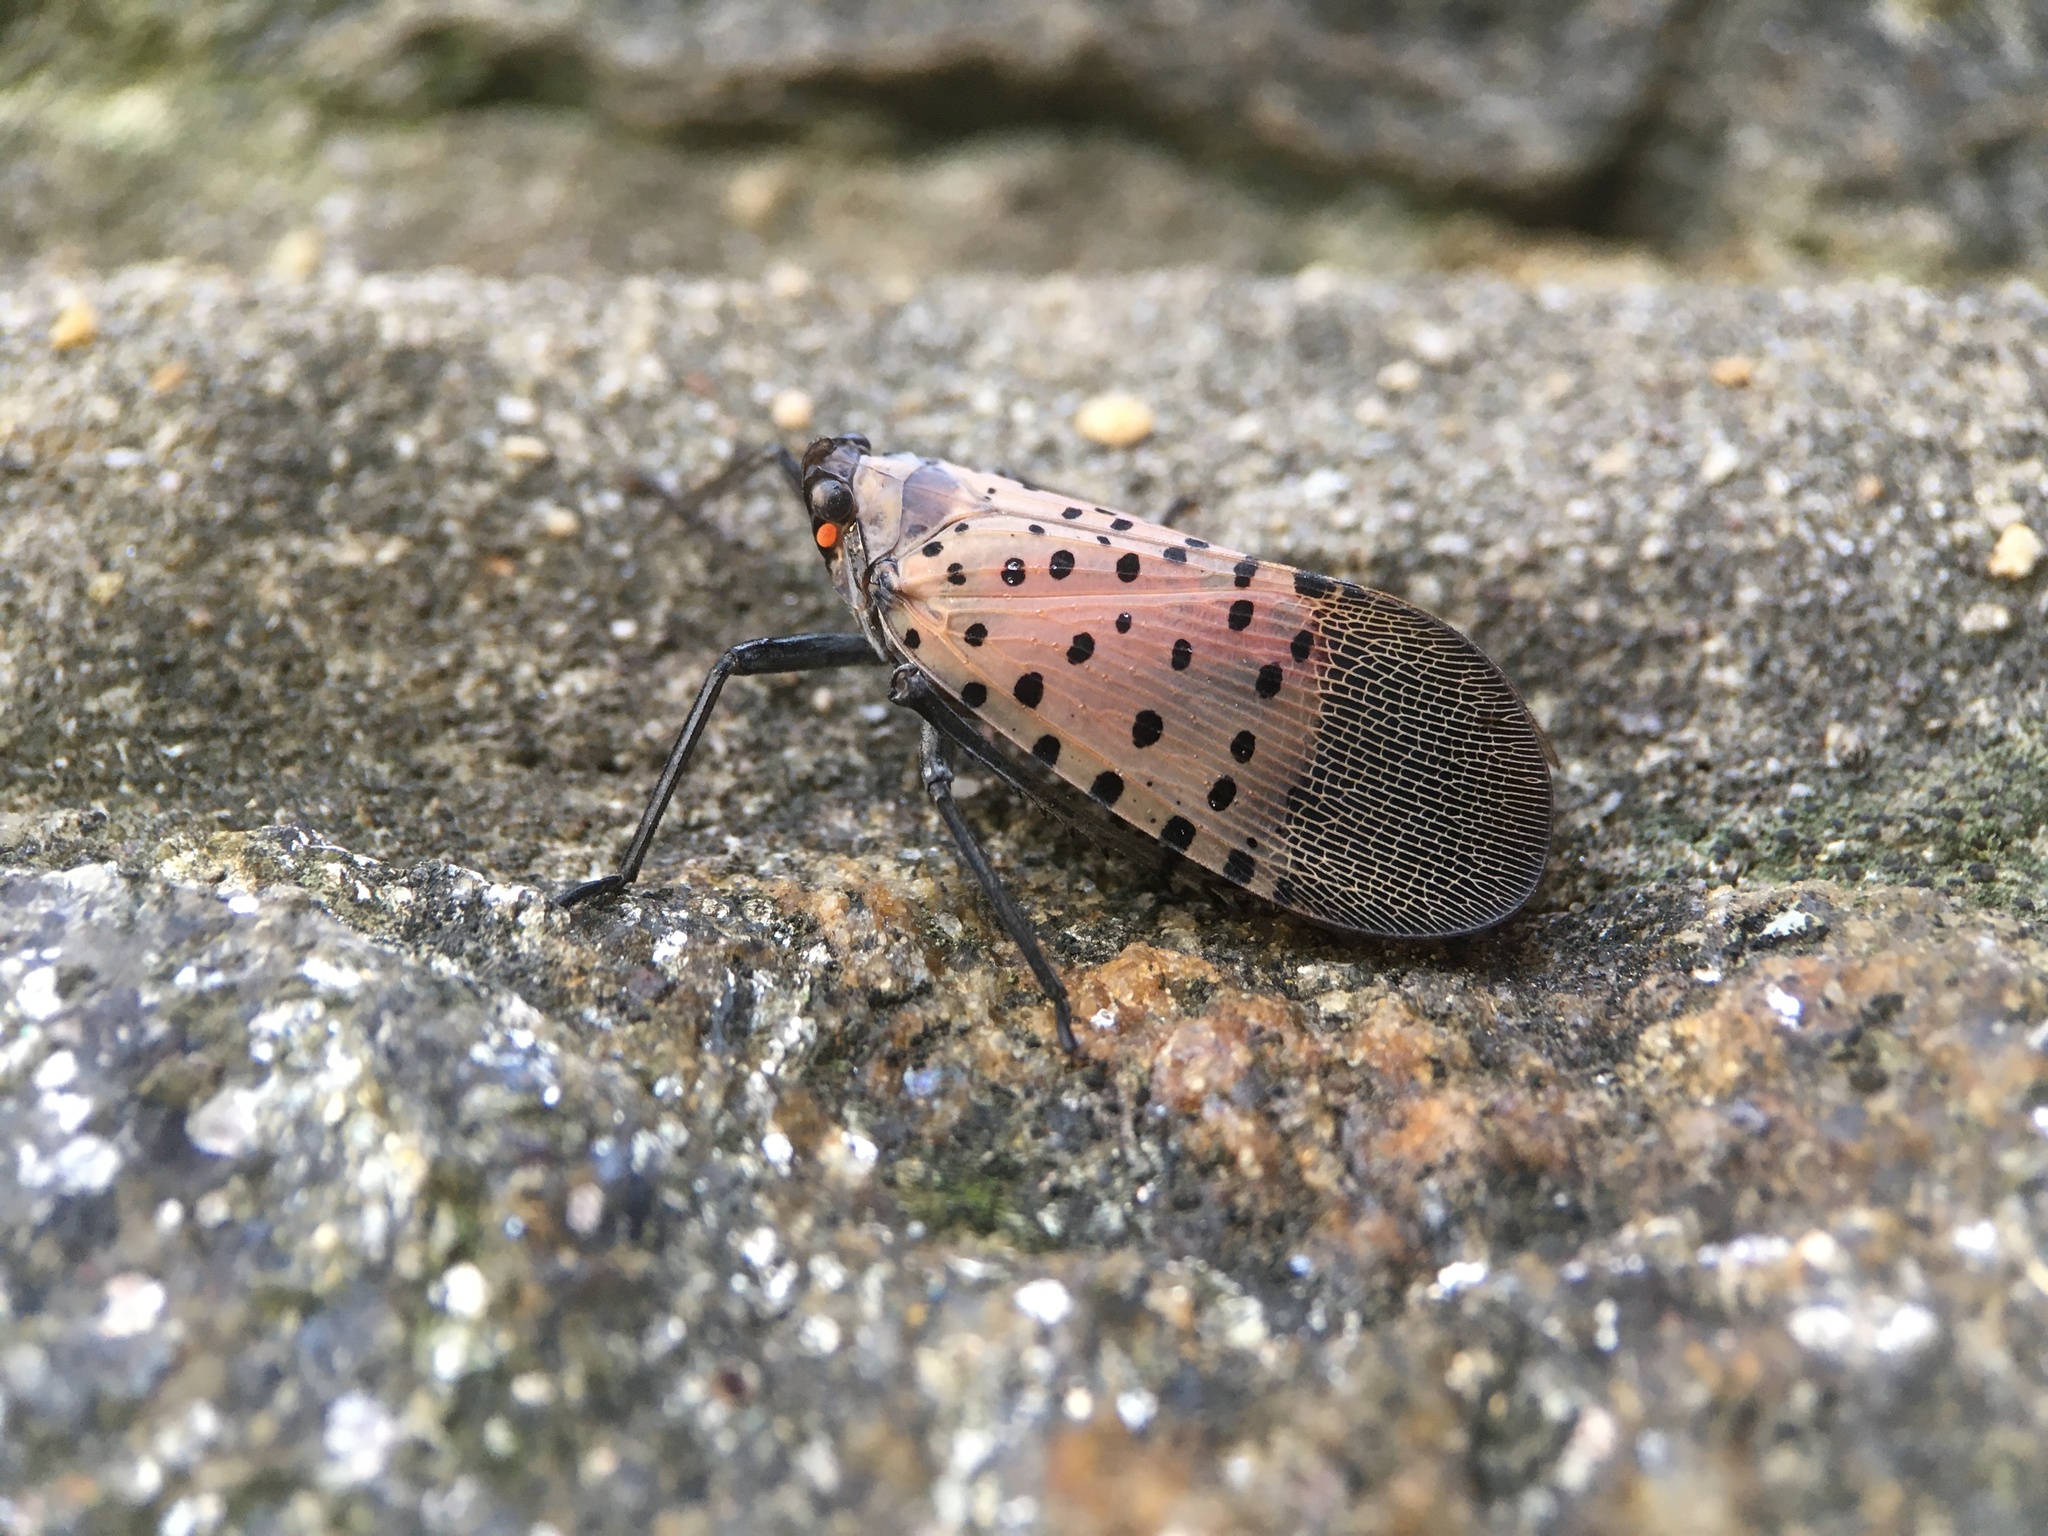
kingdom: Animalia
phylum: Arthropoda
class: Insecta
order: Hemiptera
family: Fulgoridae
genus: Lycorma
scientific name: Lycorma delicatula
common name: Spotted lanternfly
